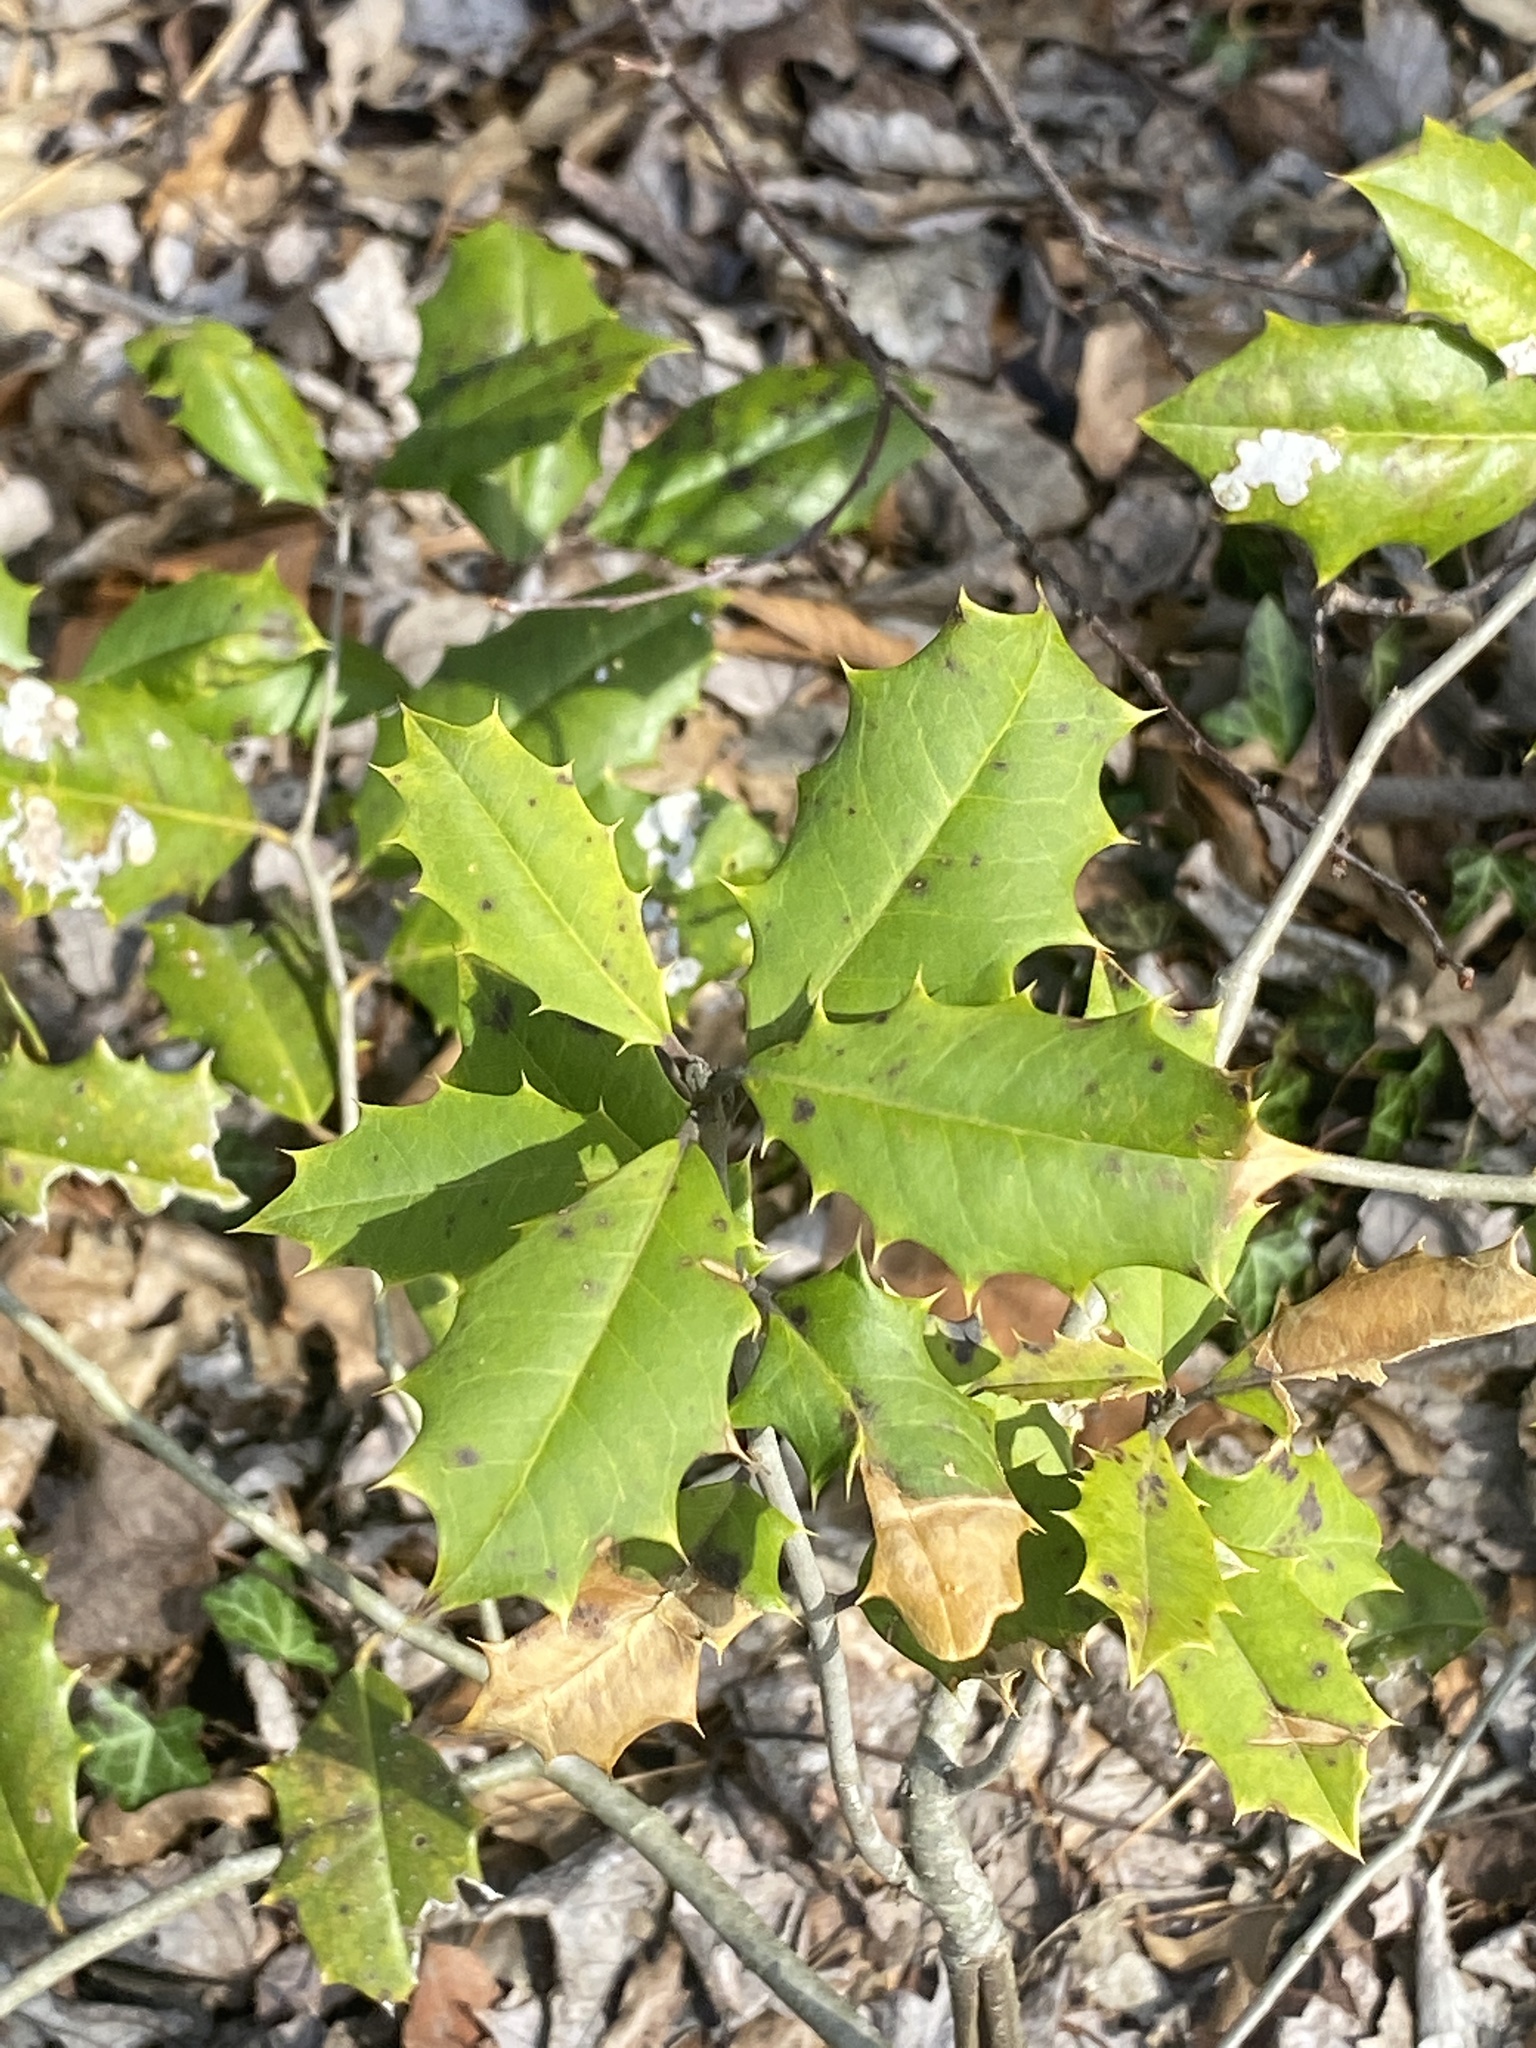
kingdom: Plantae
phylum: Tracheophyta
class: Magnoliopsida
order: Aquifoliales
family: Aquifoliaceae
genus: Ilex
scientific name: Ilex opaca
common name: American holly
